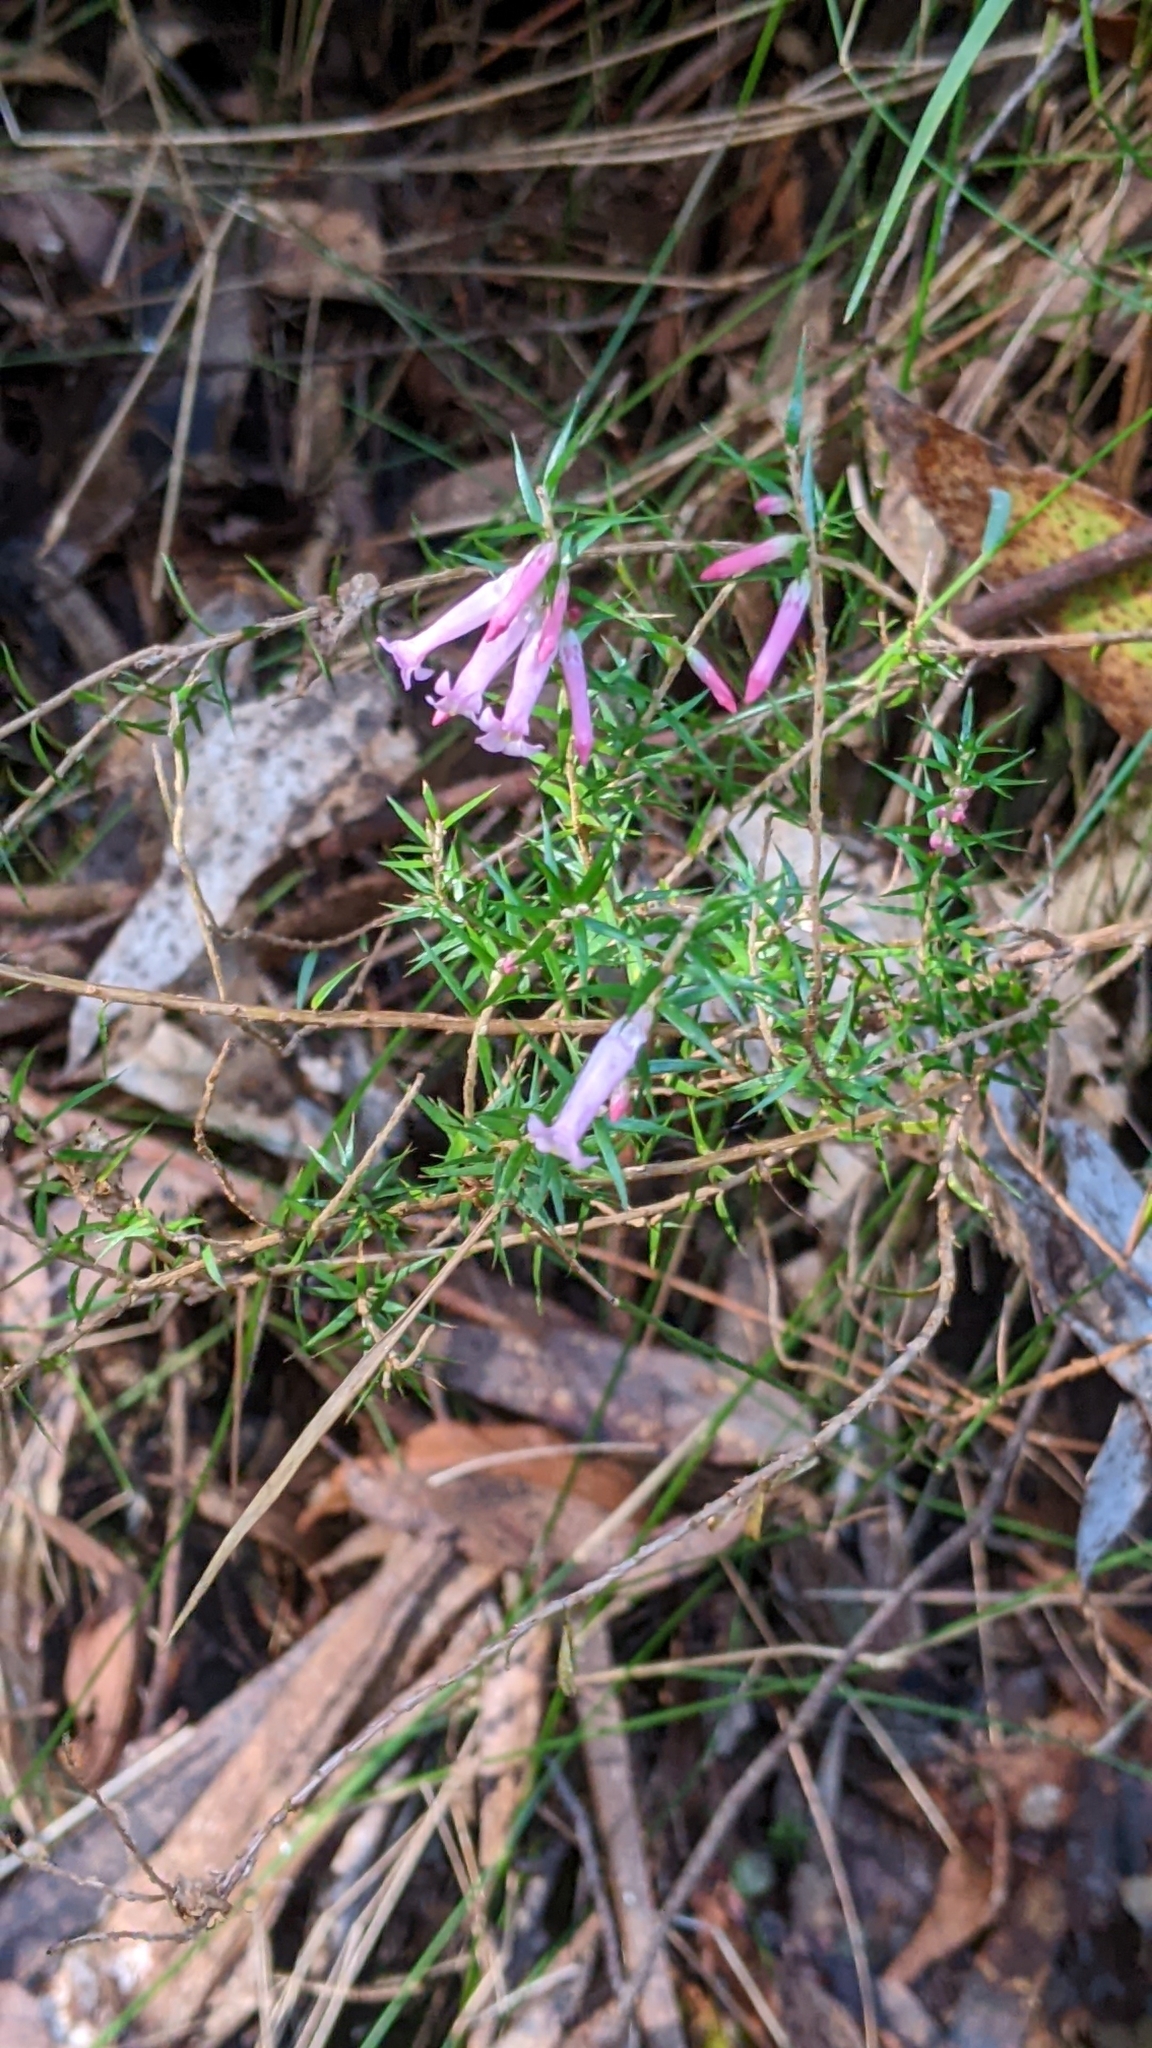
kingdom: Plantae
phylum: Tracheophyta
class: Magnoliopsida
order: Ericales
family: Ericaceae
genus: Epacris
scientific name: Epacris impressa
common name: Common-heath
